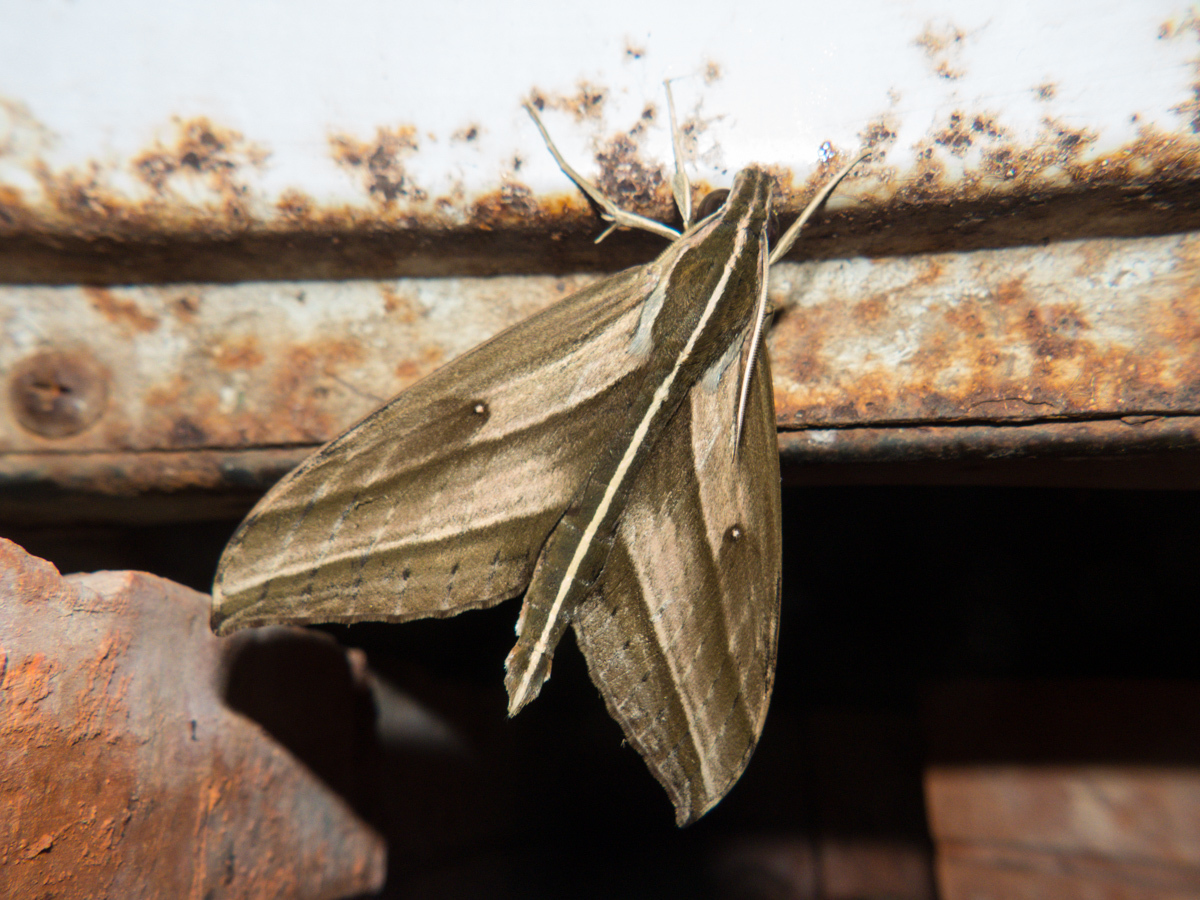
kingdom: Animalia
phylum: Arthropoda
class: Insecta
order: Lepidoptera
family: Sphingidae
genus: Elibia
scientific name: Elibia dolichus
